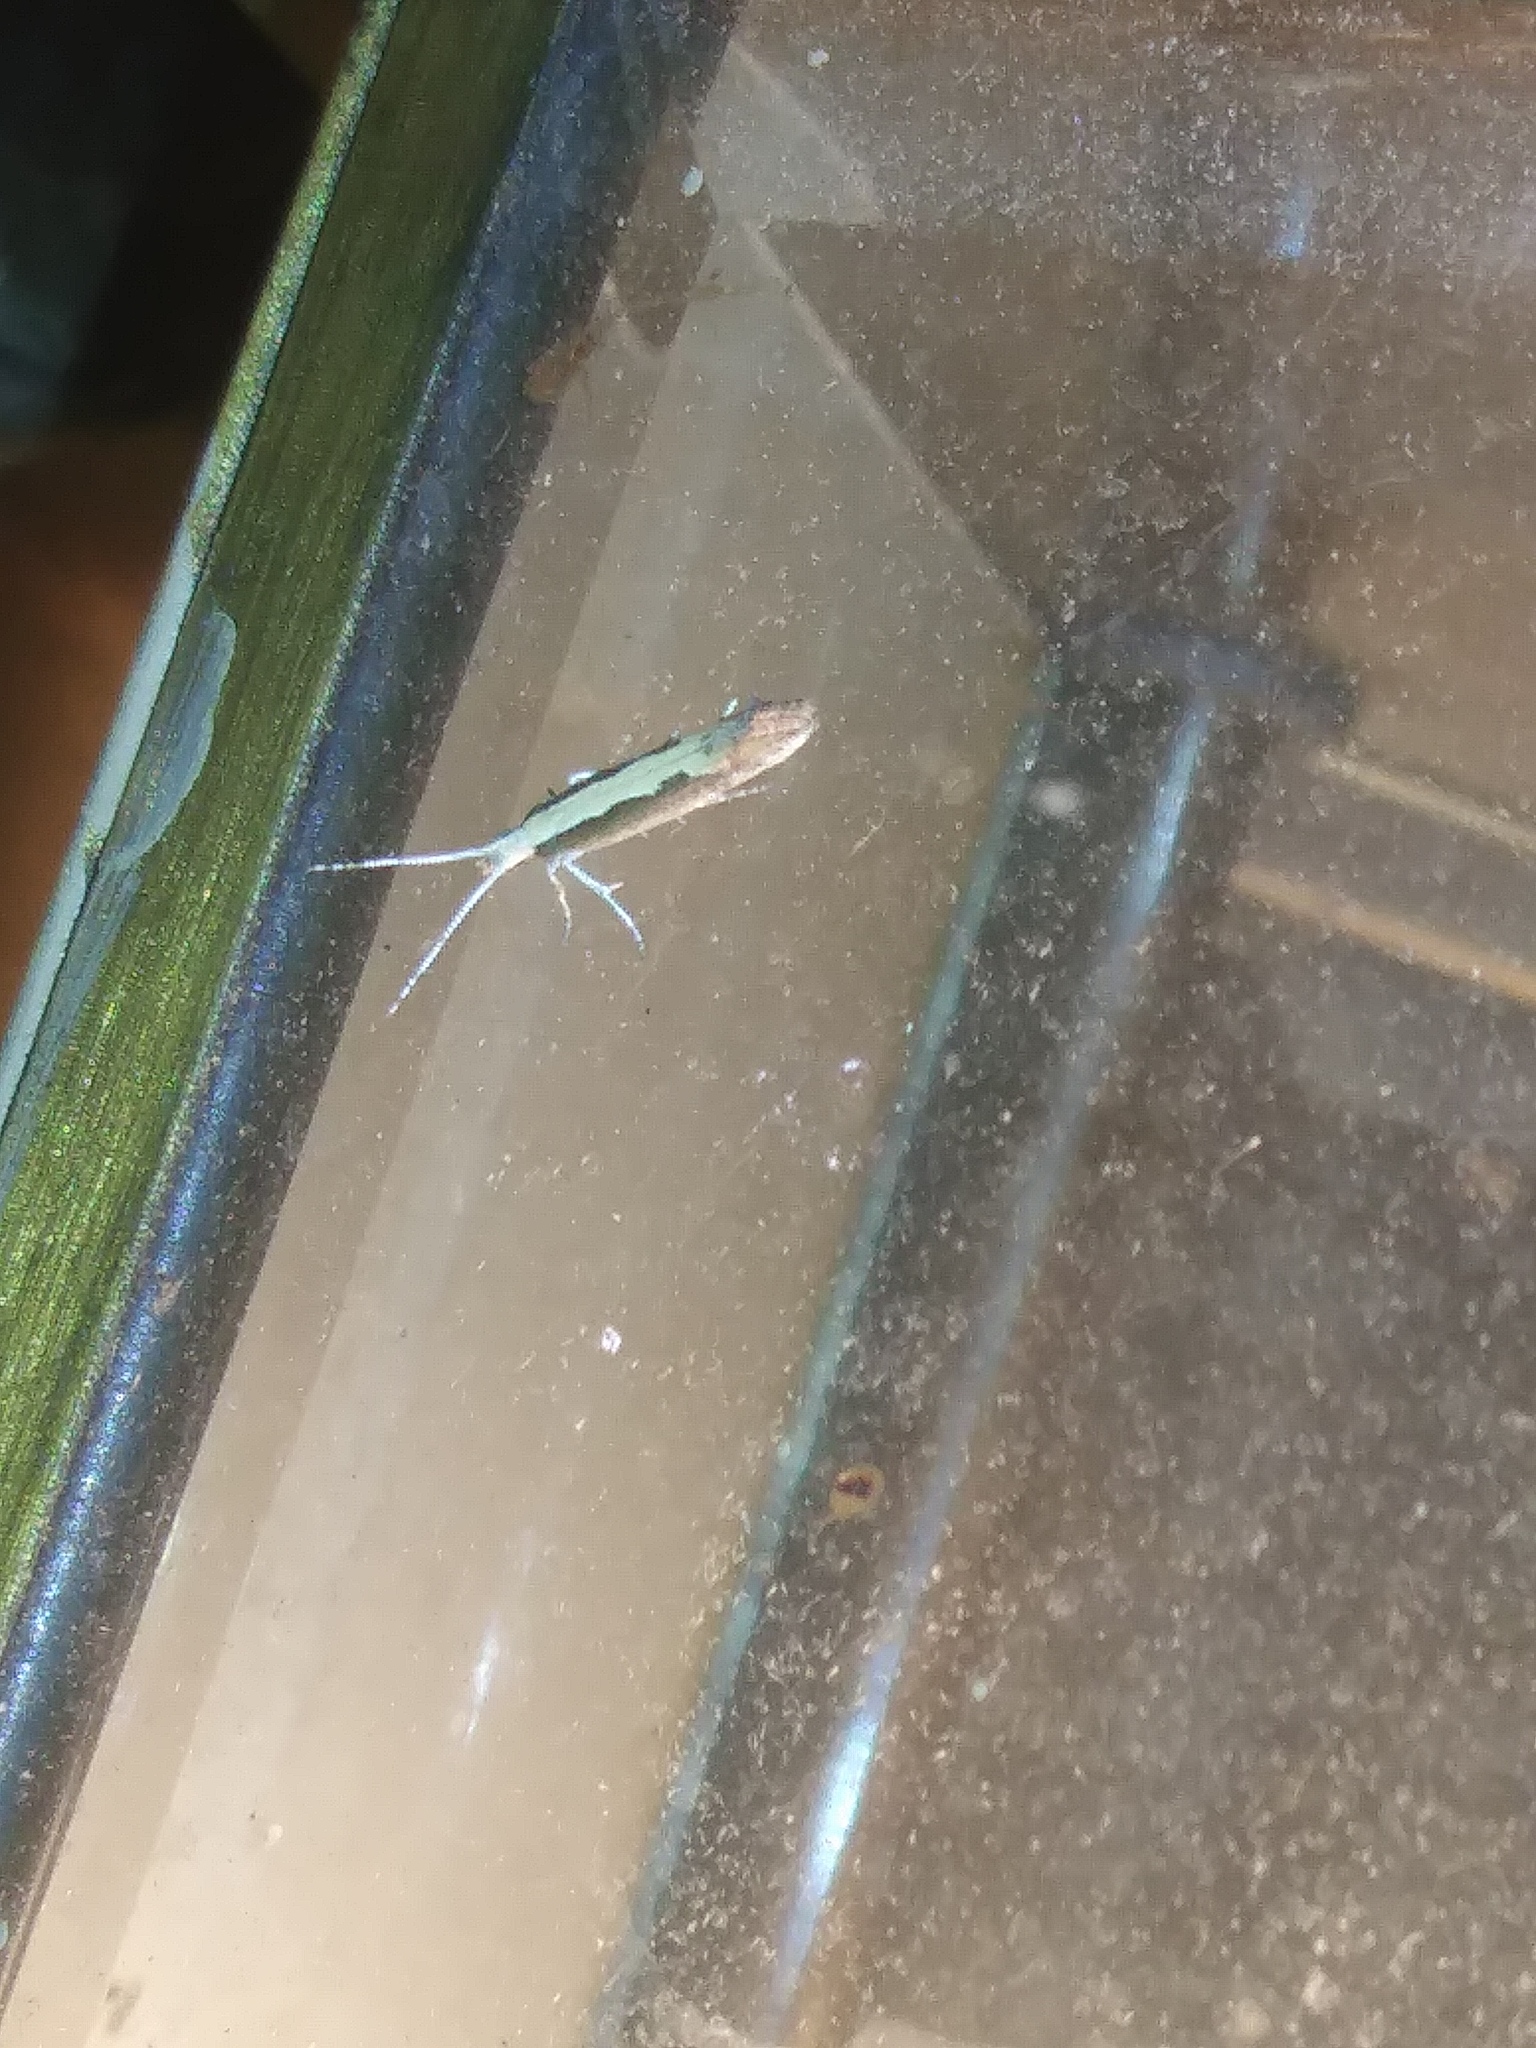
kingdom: Animalia
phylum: Arthropoda
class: Insecta
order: Lepidoptera
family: Plutellidae
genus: Plutella
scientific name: Plutella xylostella
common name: Diamond-back moth
